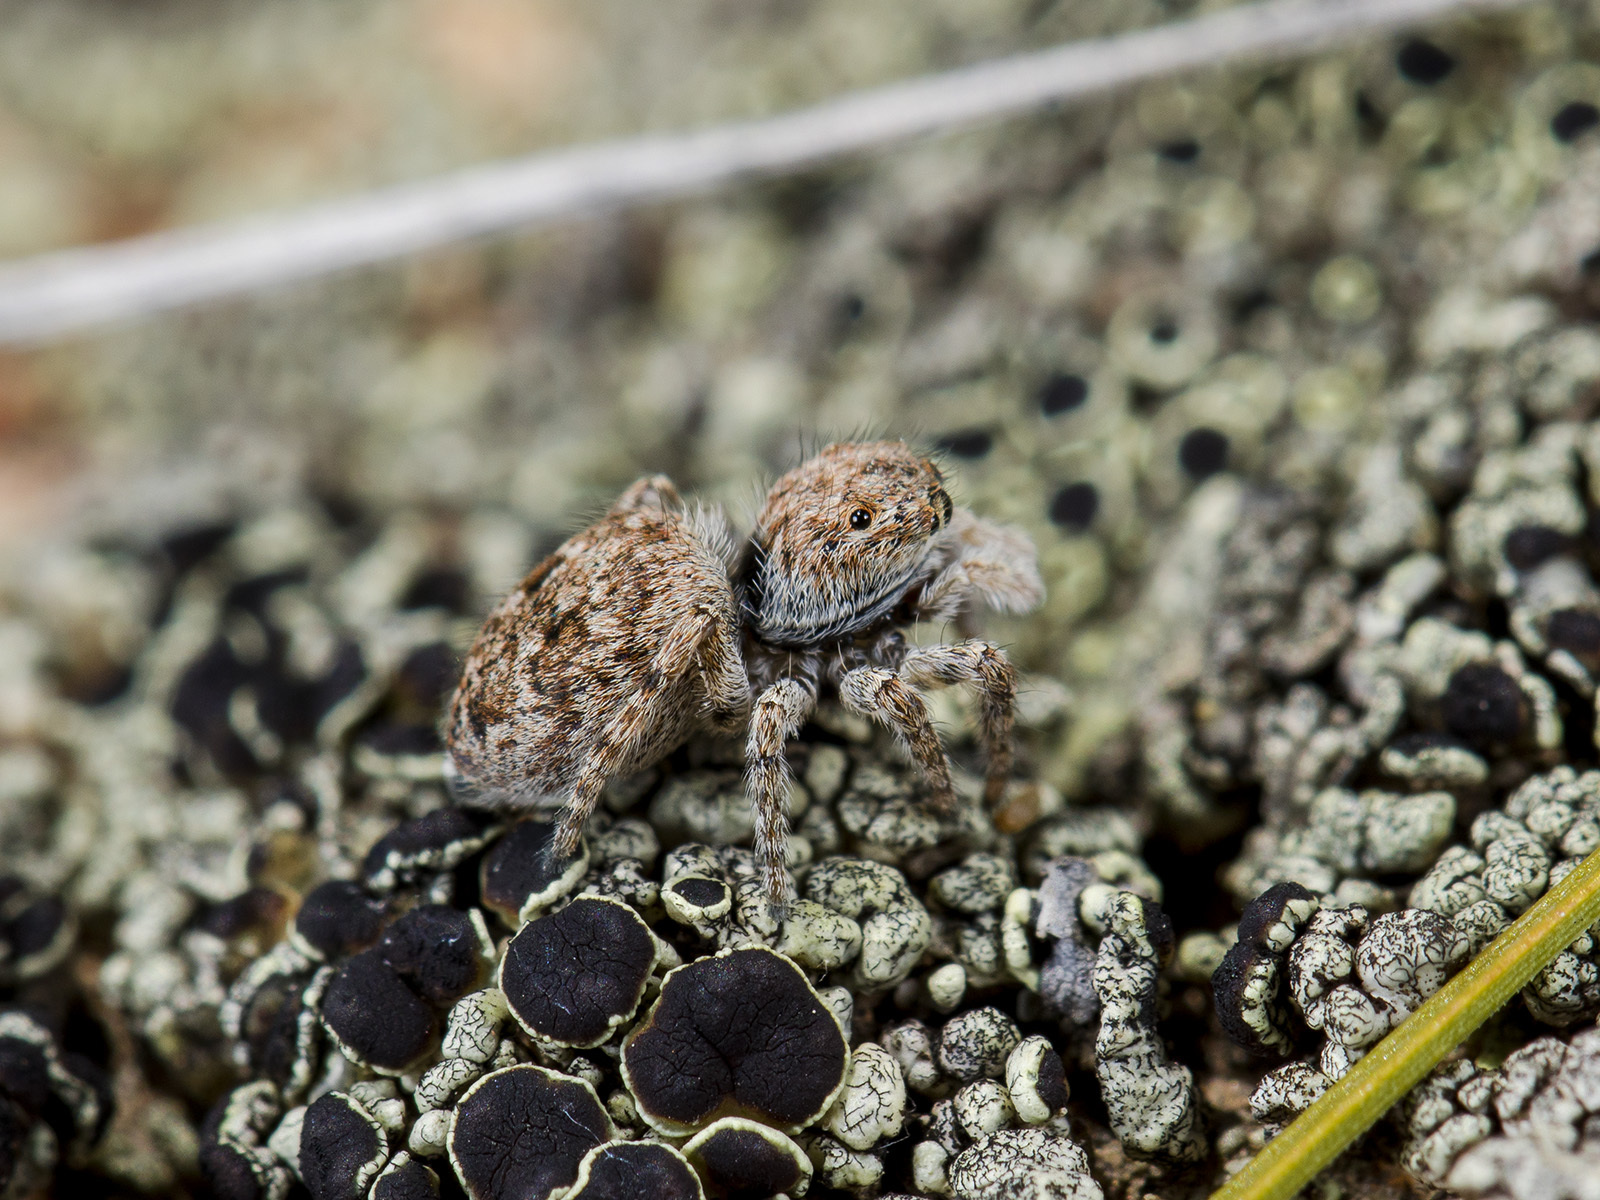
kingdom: Animalia
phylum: Arthropoda
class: Arachnida
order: Araneae
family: Salticidae
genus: Attulus
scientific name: Attulus distinguendus
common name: Distinguished jumper
